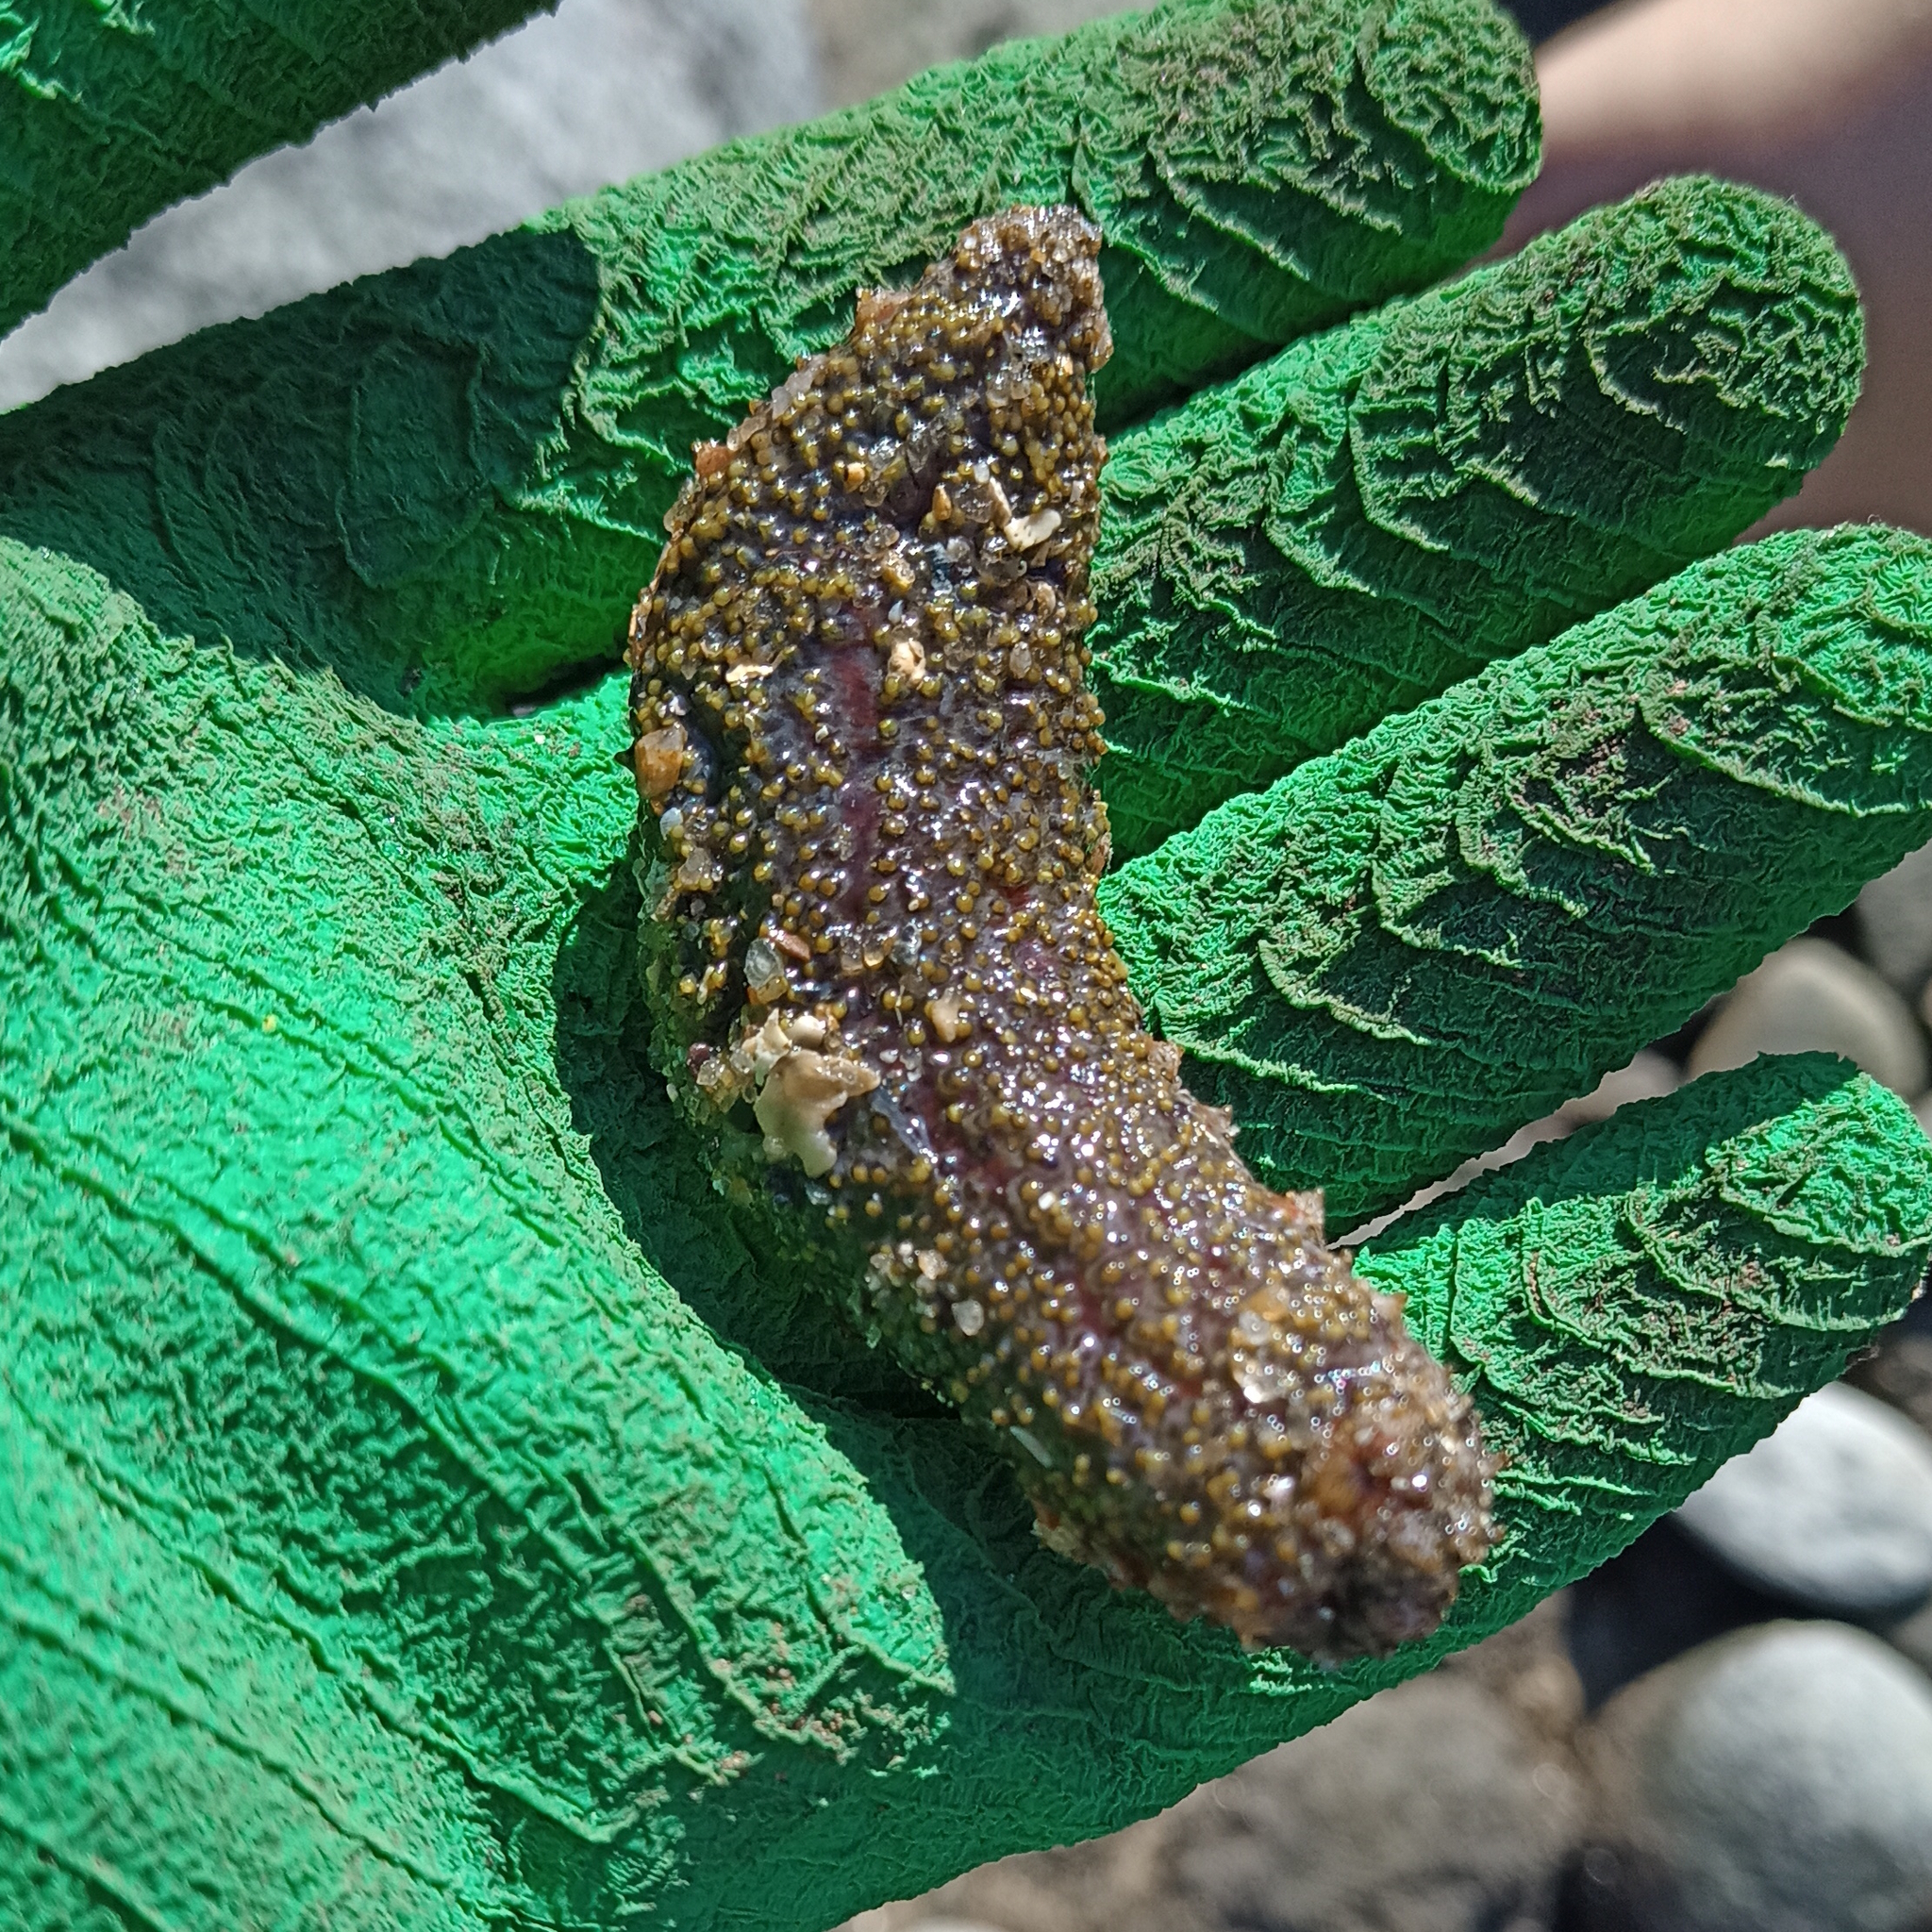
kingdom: Animalia
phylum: Echinodermata
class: Holothuroidea
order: Holothuriida
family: Holothuriidae
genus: Holothuria
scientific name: Holothuria grisea
